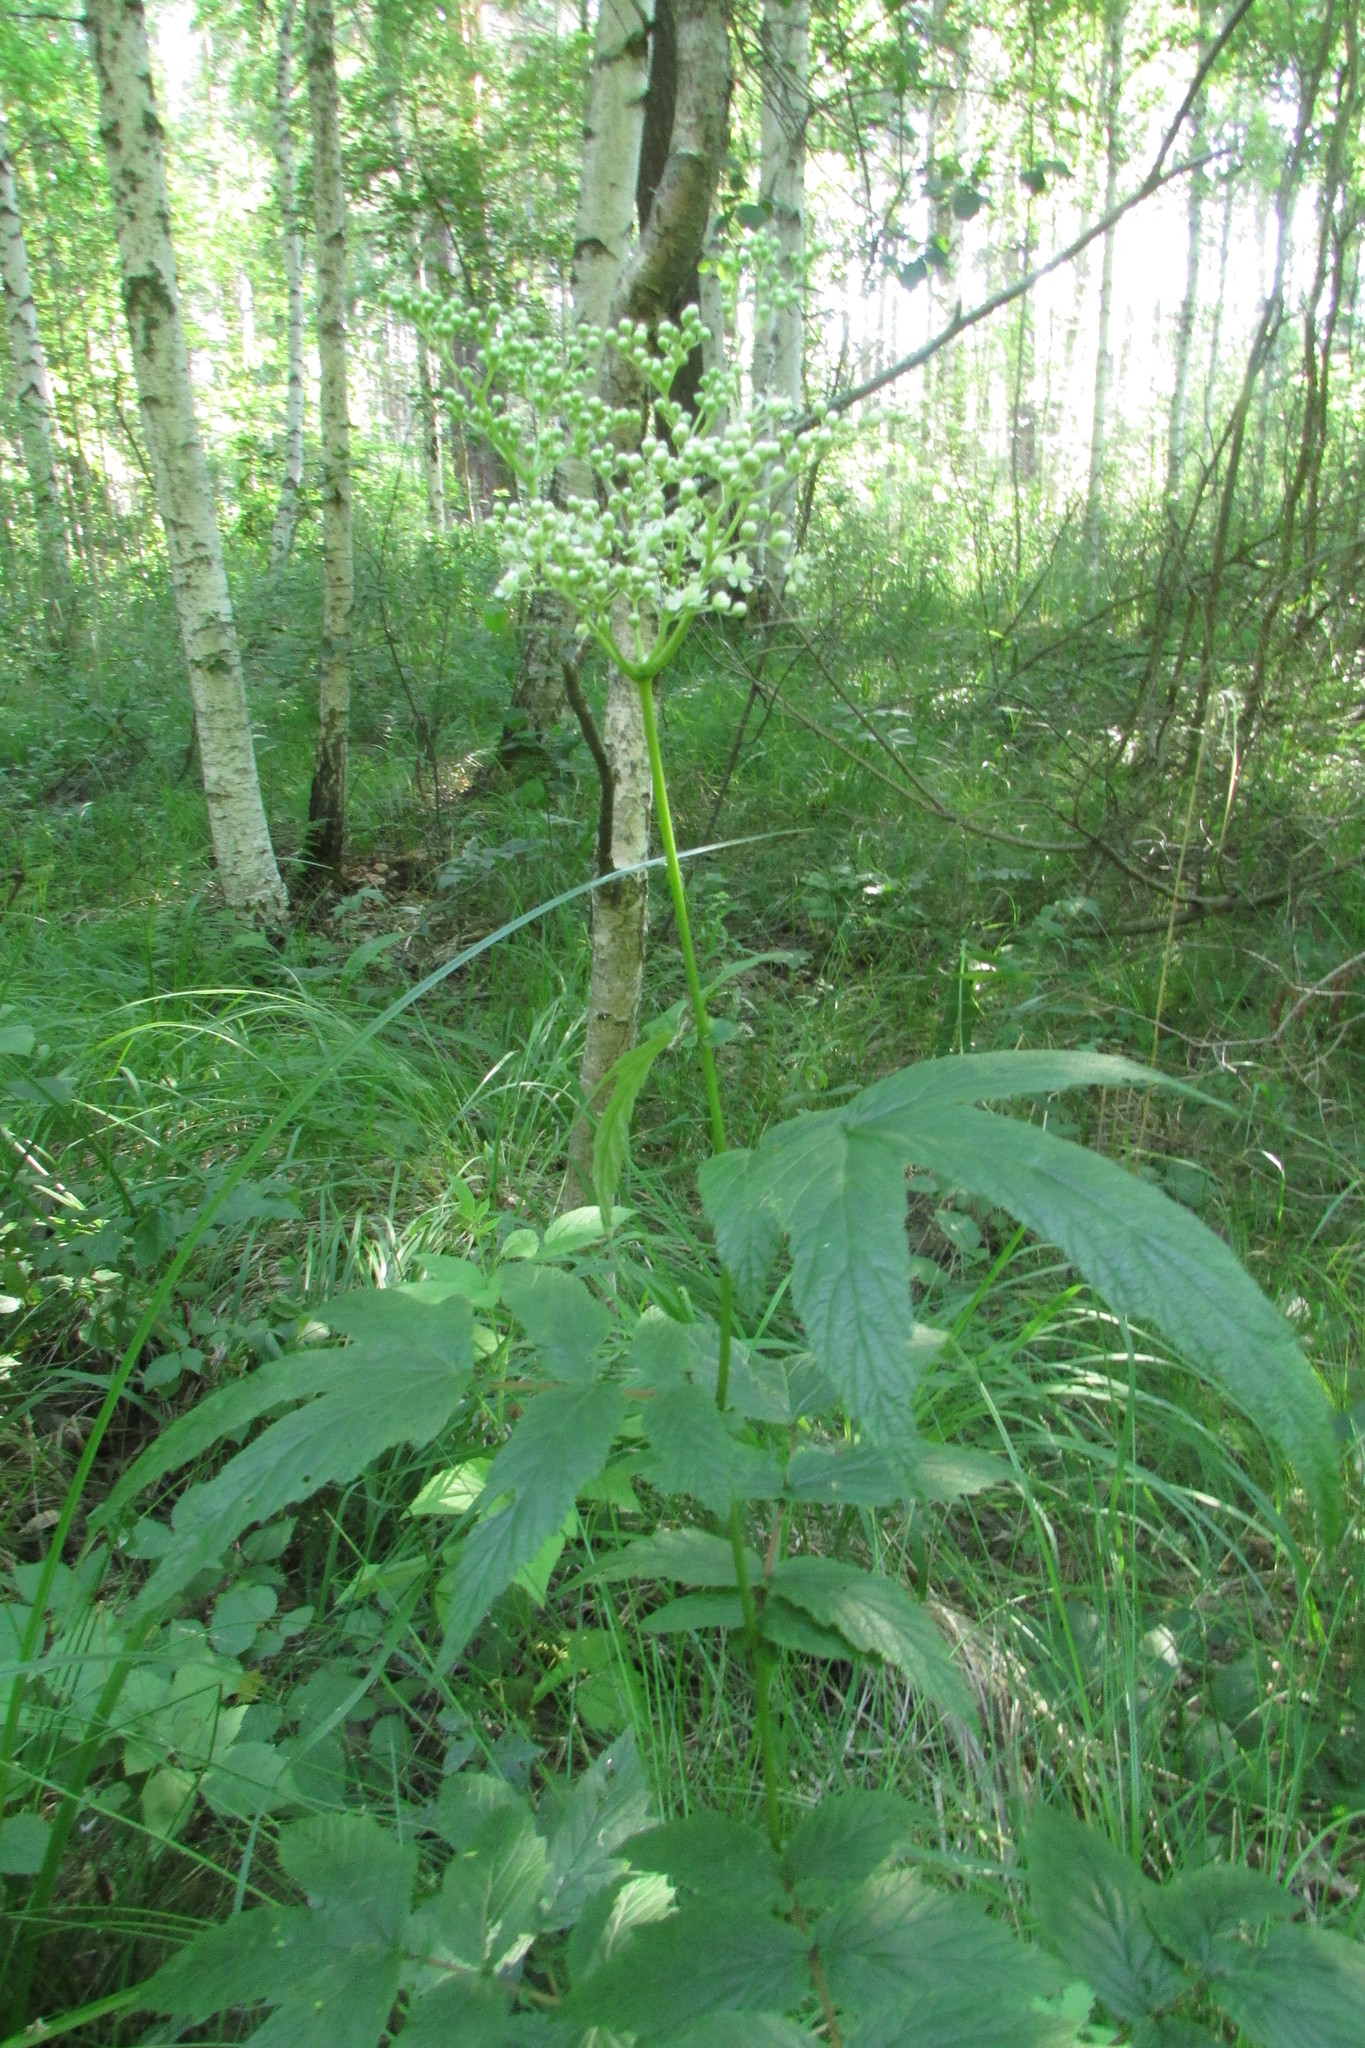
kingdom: Plantae
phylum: Tracheophyta
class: Magnoliopsida
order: Rosales
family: Rosaceae
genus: Filipendula
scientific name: Filipendula ulmaria
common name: Meadowsweet
